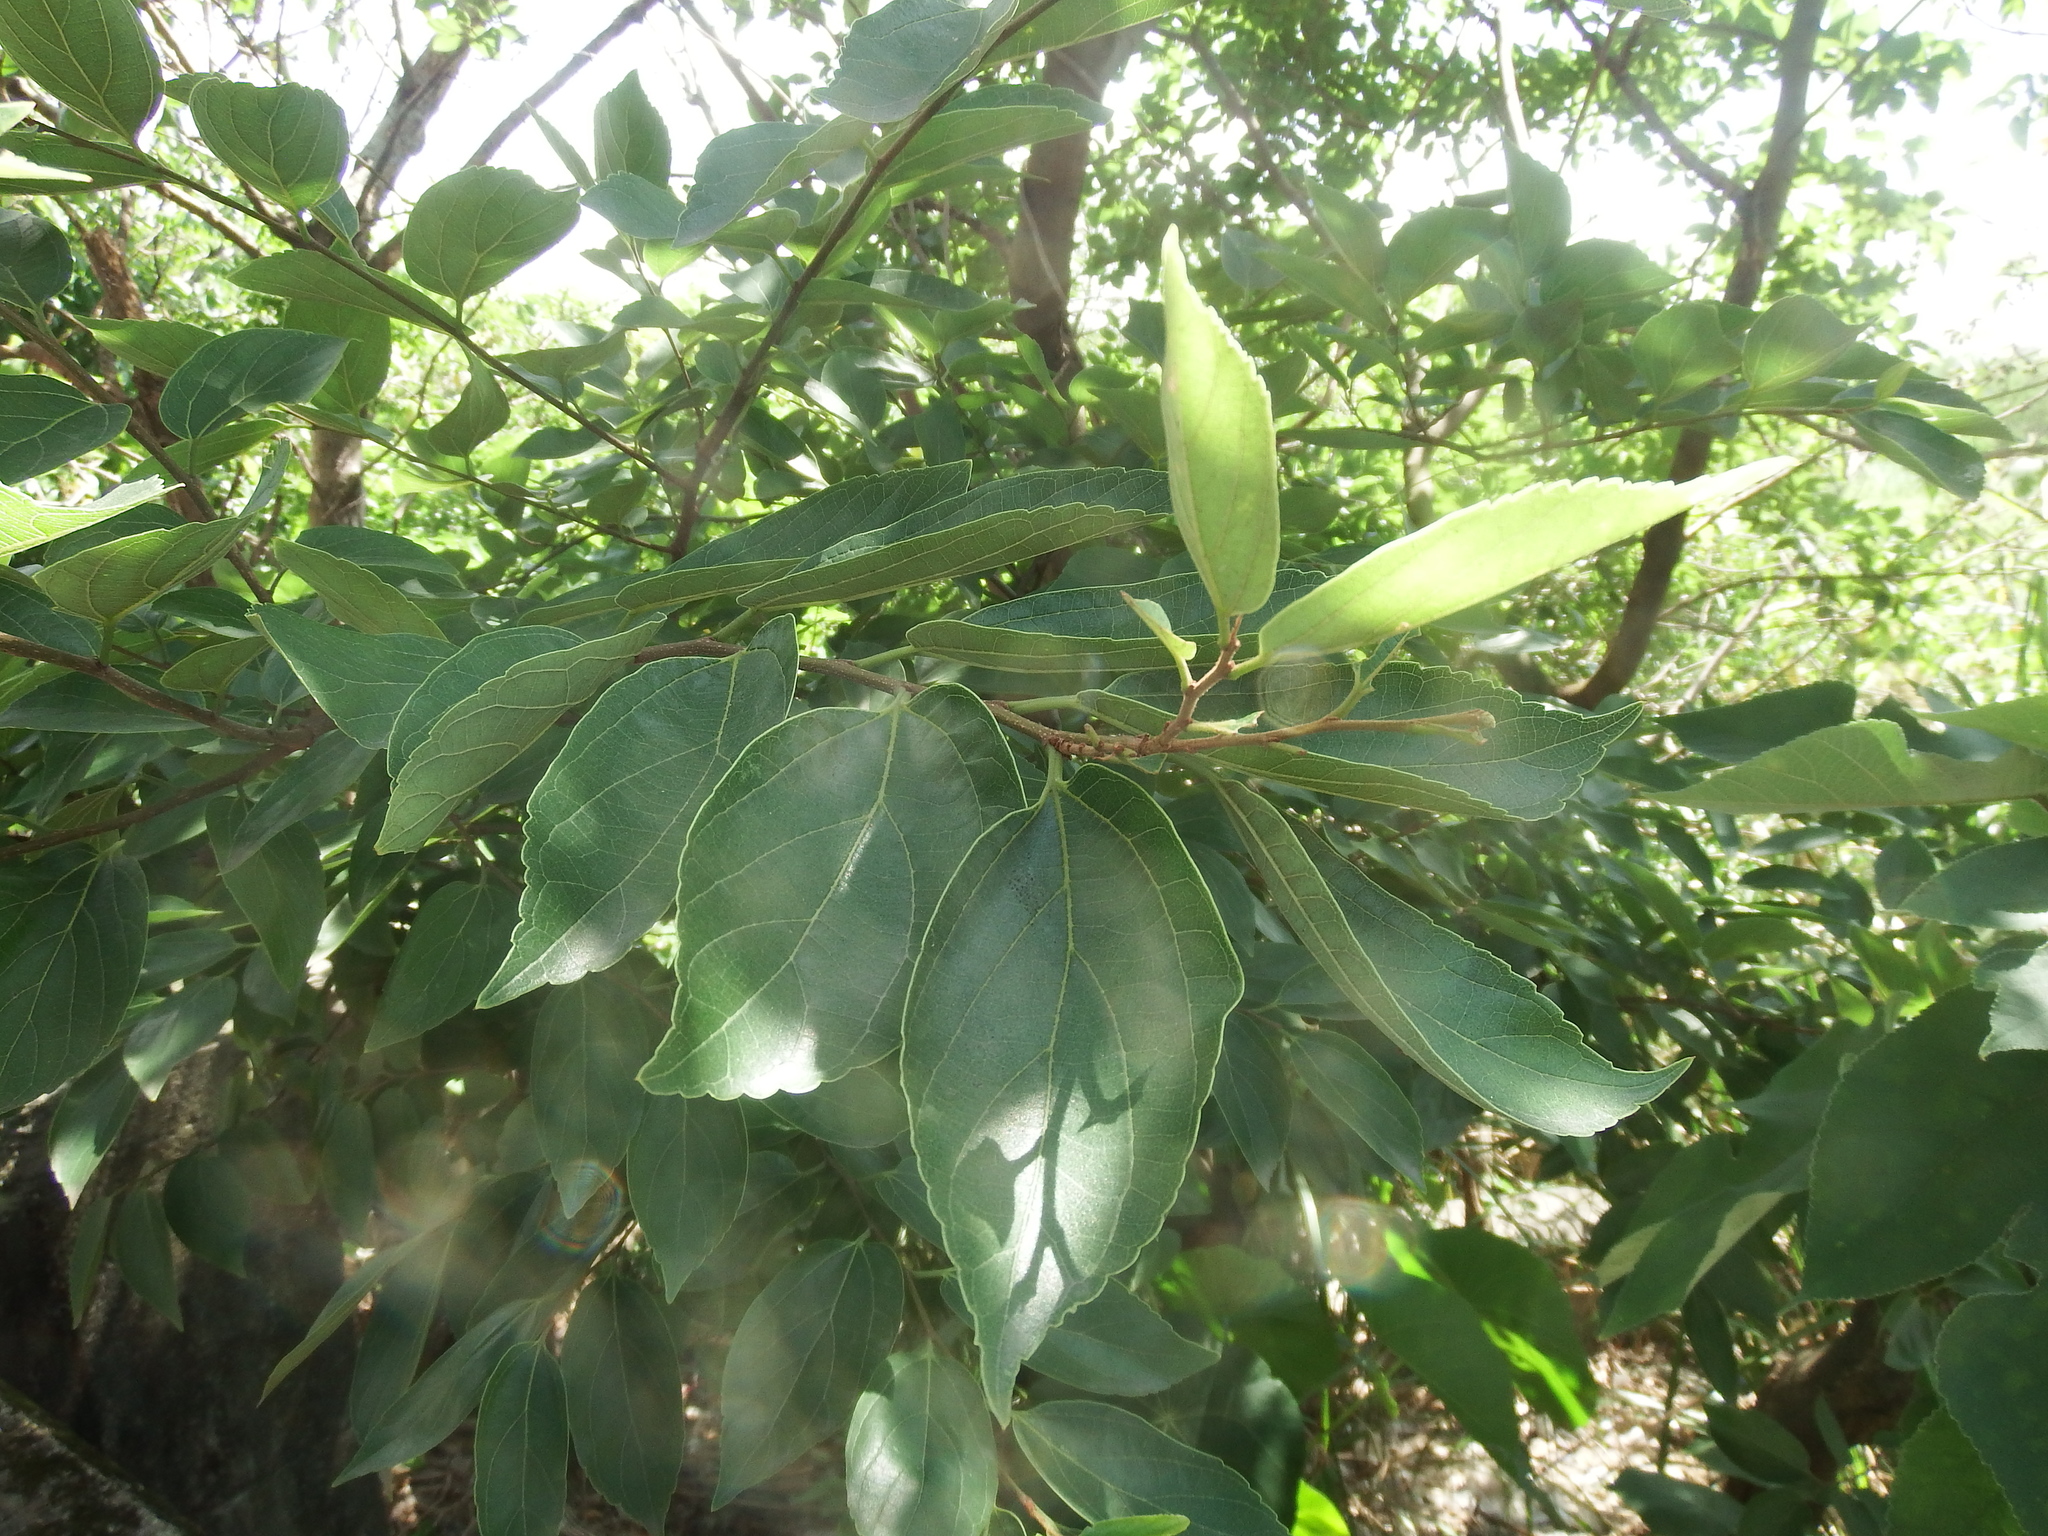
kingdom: Plantae
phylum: Tracheophyta
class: Magnoliopsida
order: Rosales
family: Cannabaceae
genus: Celtis
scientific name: Celtis sinensis
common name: Chinese hackberry
